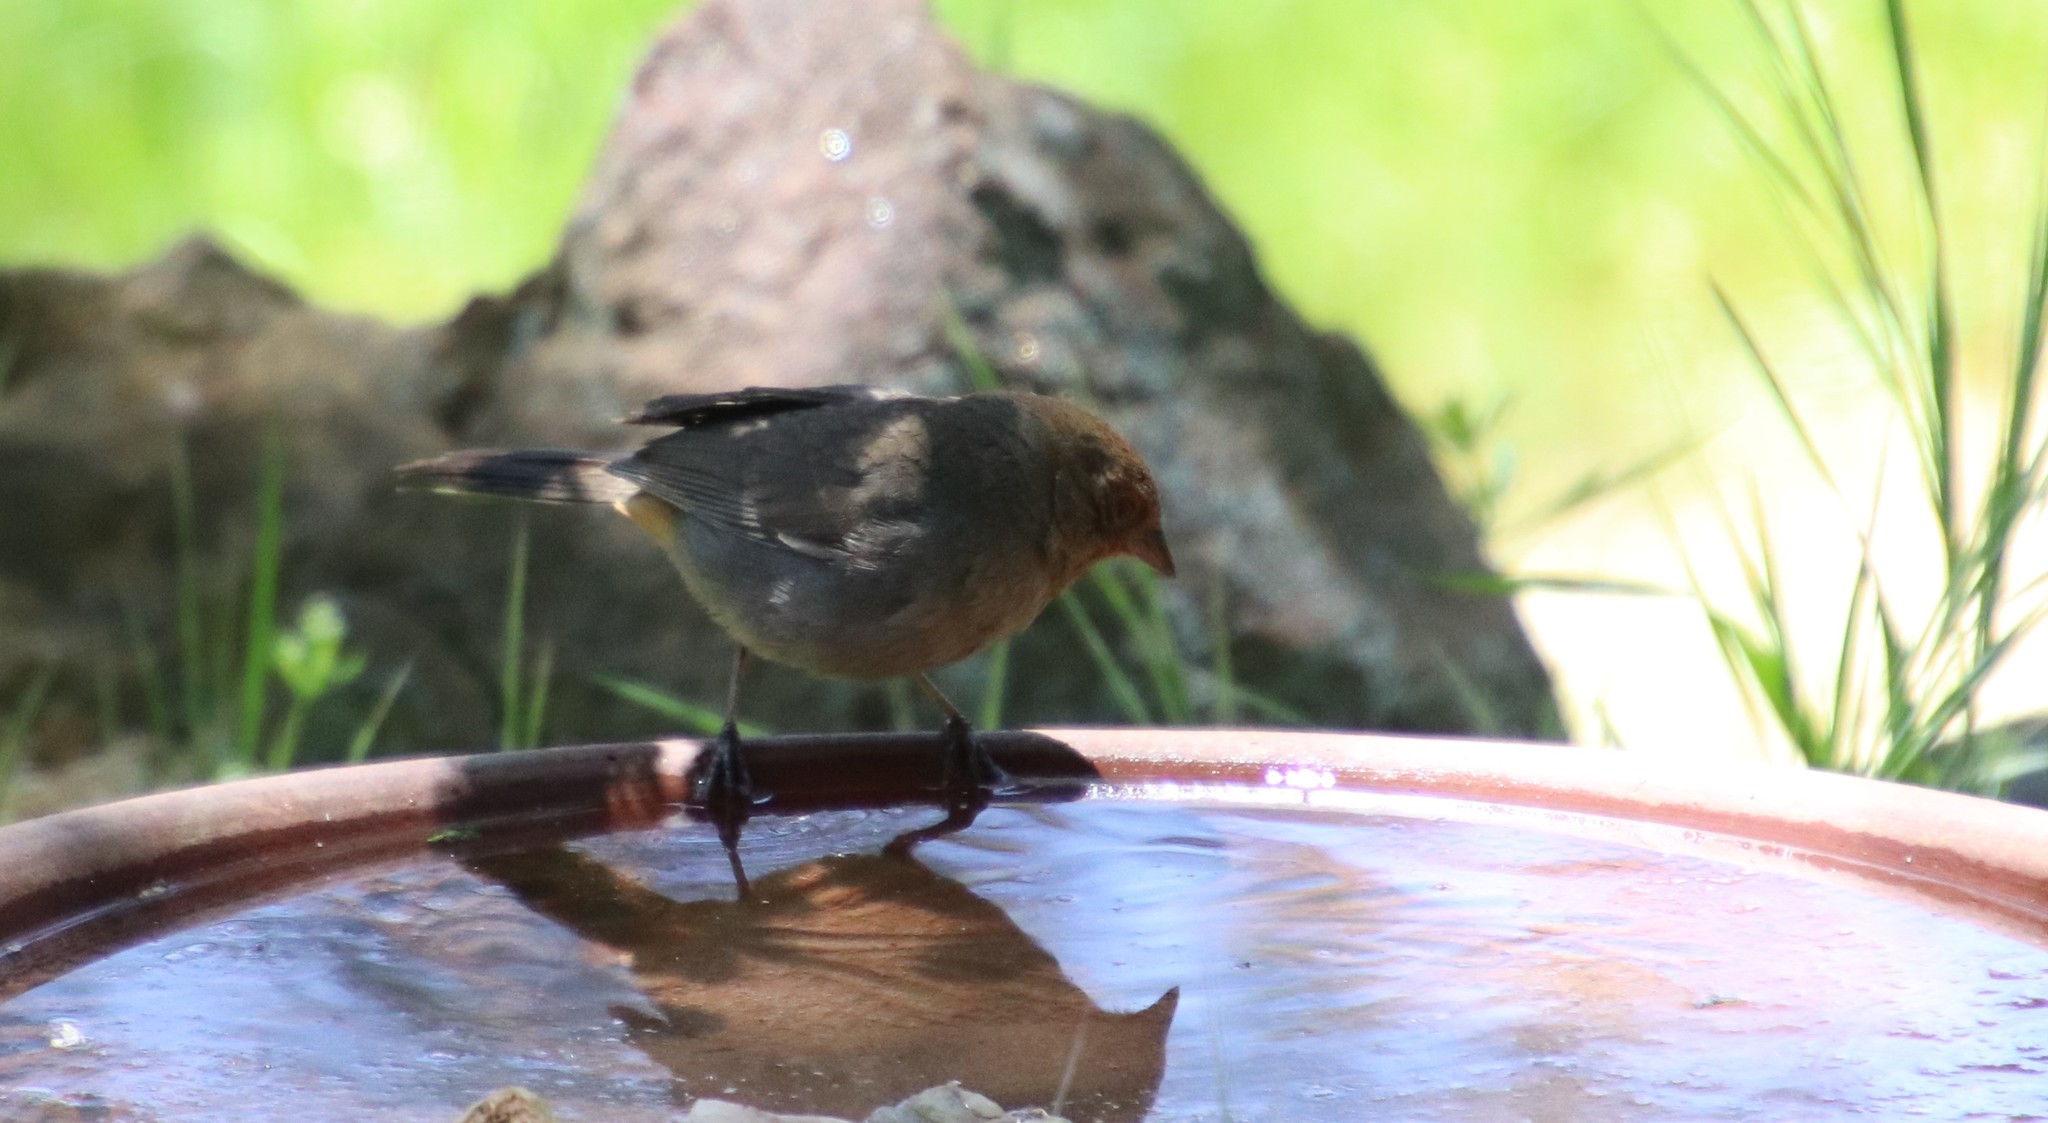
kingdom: Animalia
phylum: Chordata
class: Aves
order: Passeriformes
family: Passerellidae
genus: Melozone
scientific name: Melozone crissalis
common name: California towhee
